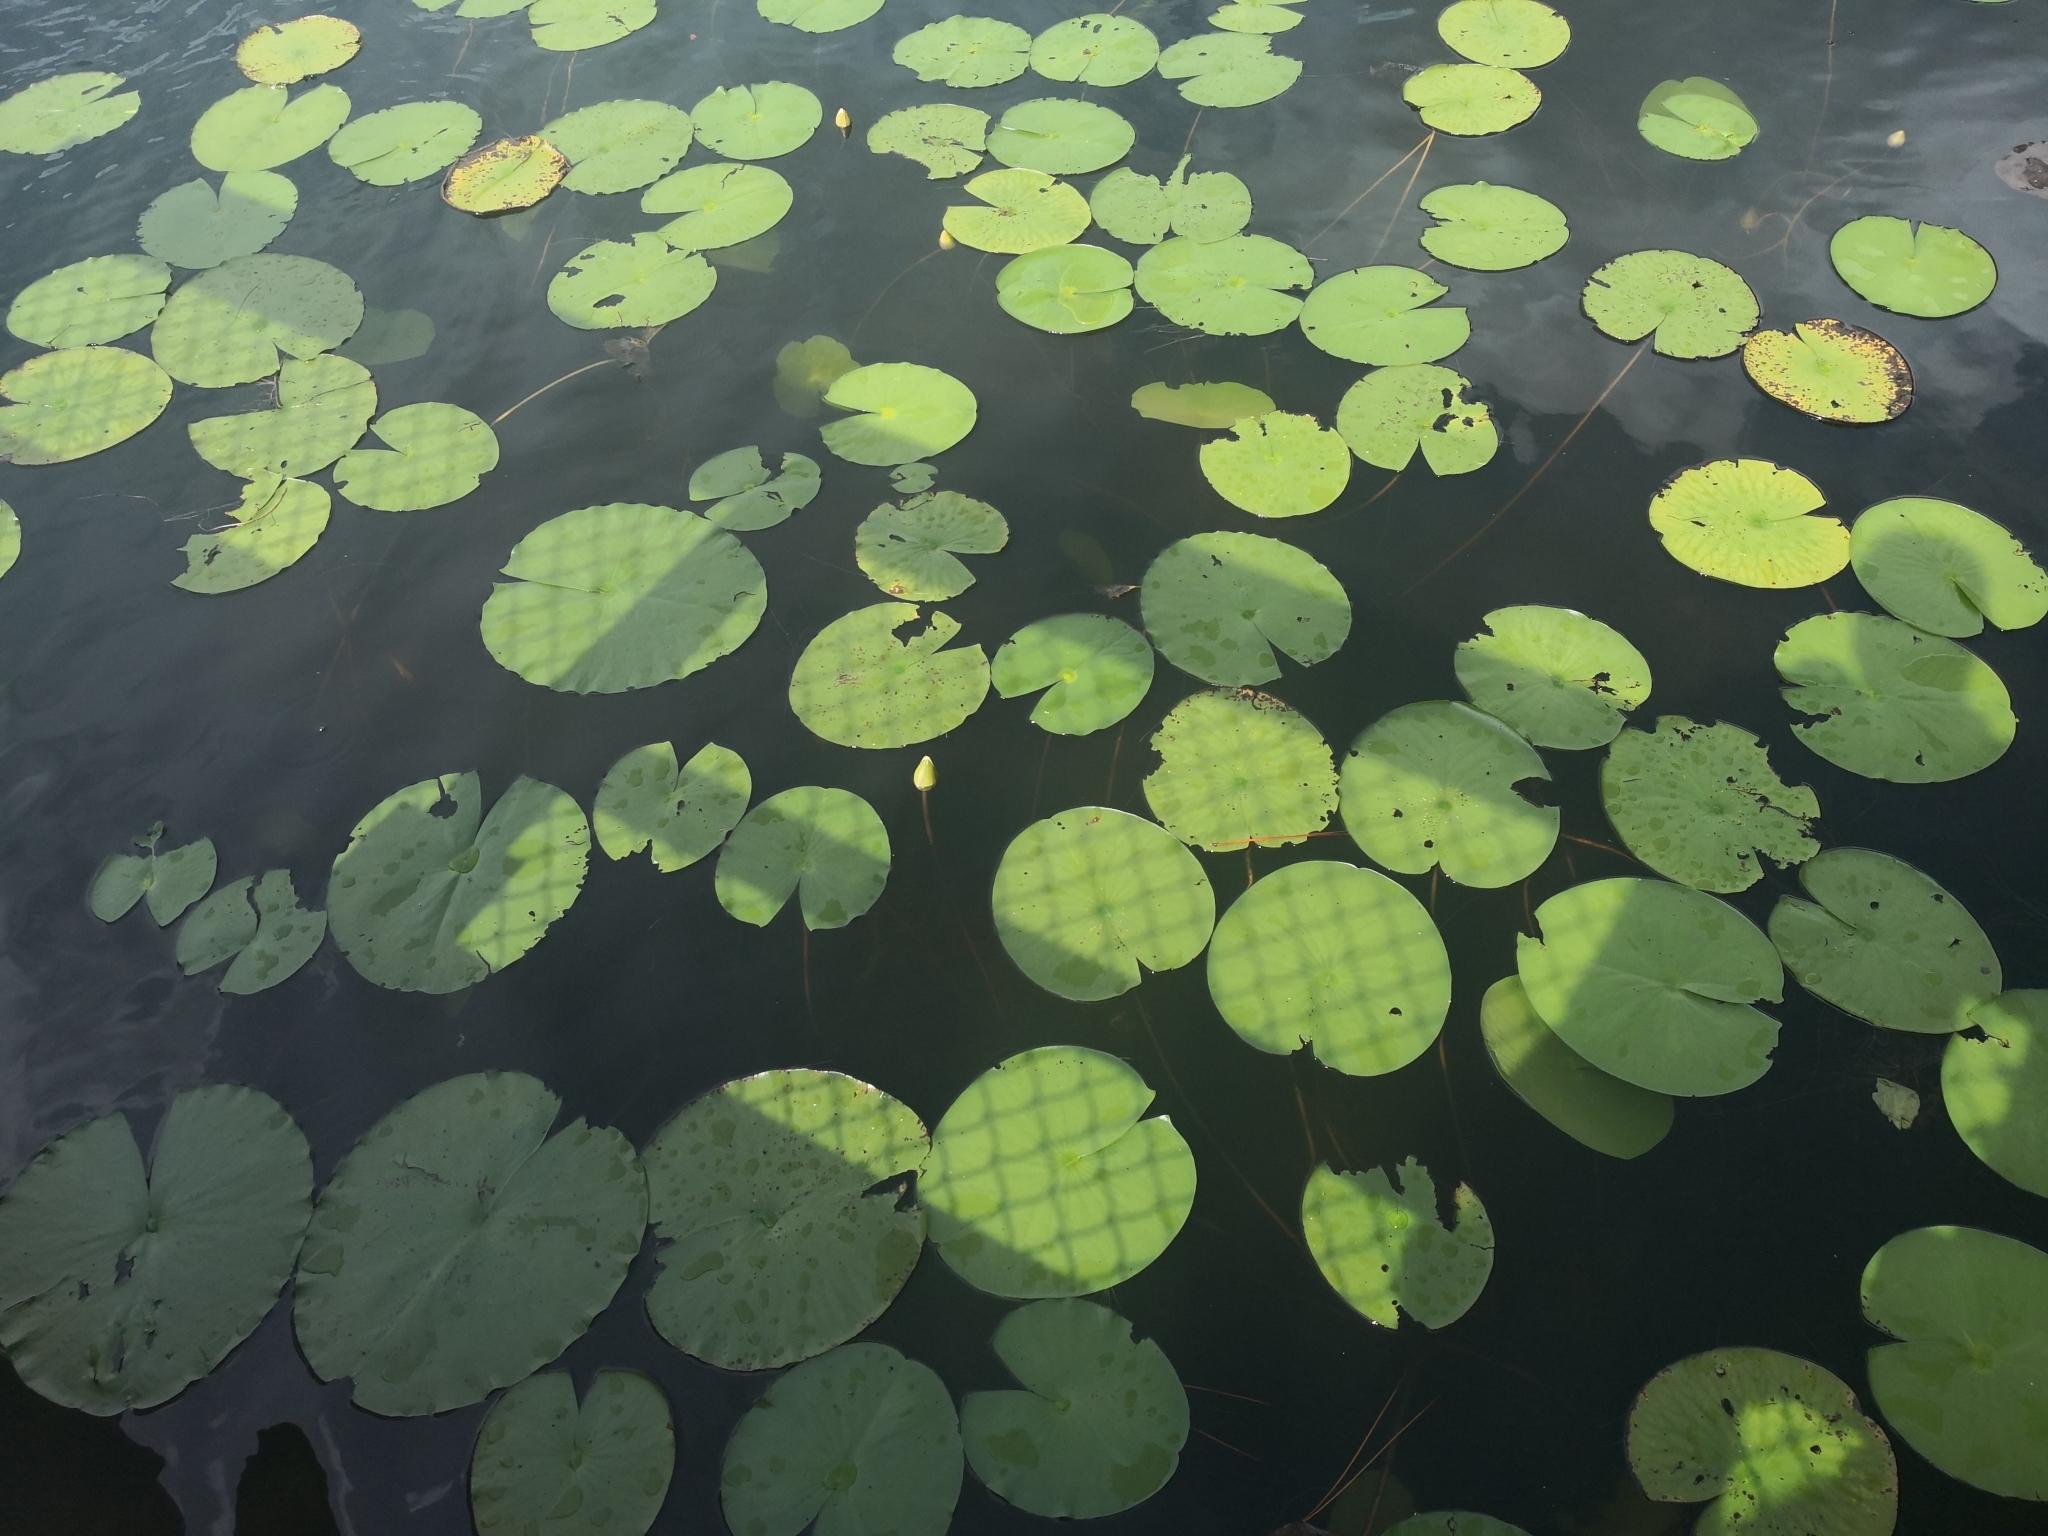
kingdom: Plantae
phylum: Tracheophyta
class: Magnoliopsida
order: Nymphaeales
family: Nymphaeaceae
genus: Nymphaea
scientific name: Nymphaea odorata
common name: Fragrant water-lily
